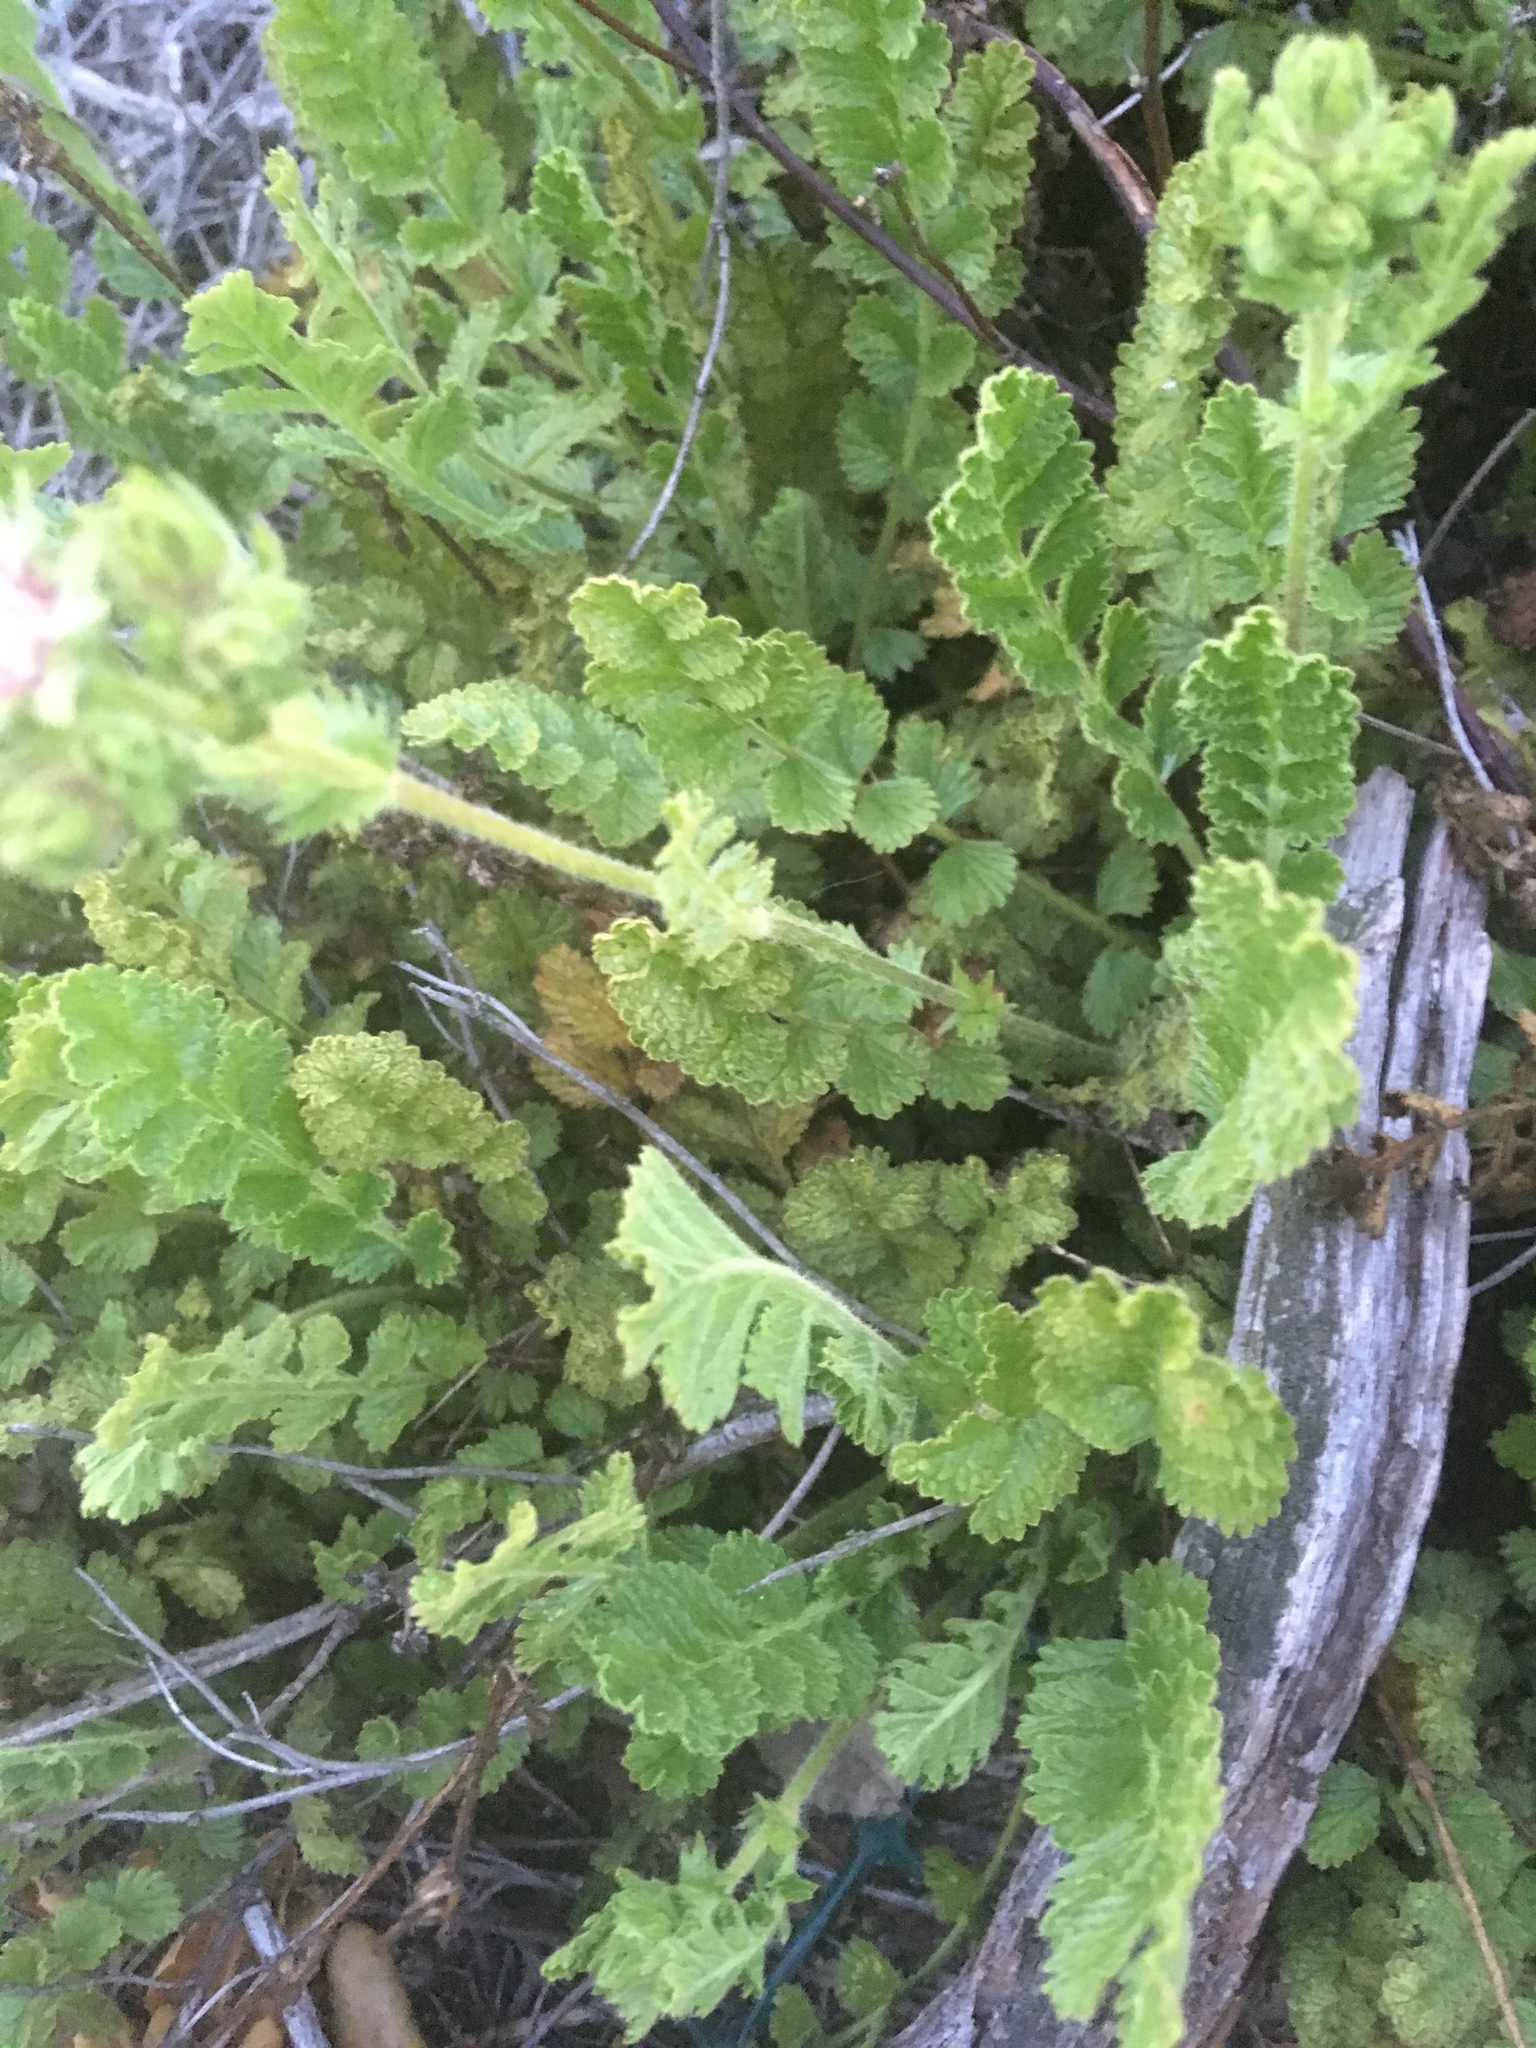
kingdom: Plantae
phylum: Tracheophyta
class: Magnoliopsida
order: Rosales
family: Rosaceae
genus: Potentilla
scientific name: Potentilla
